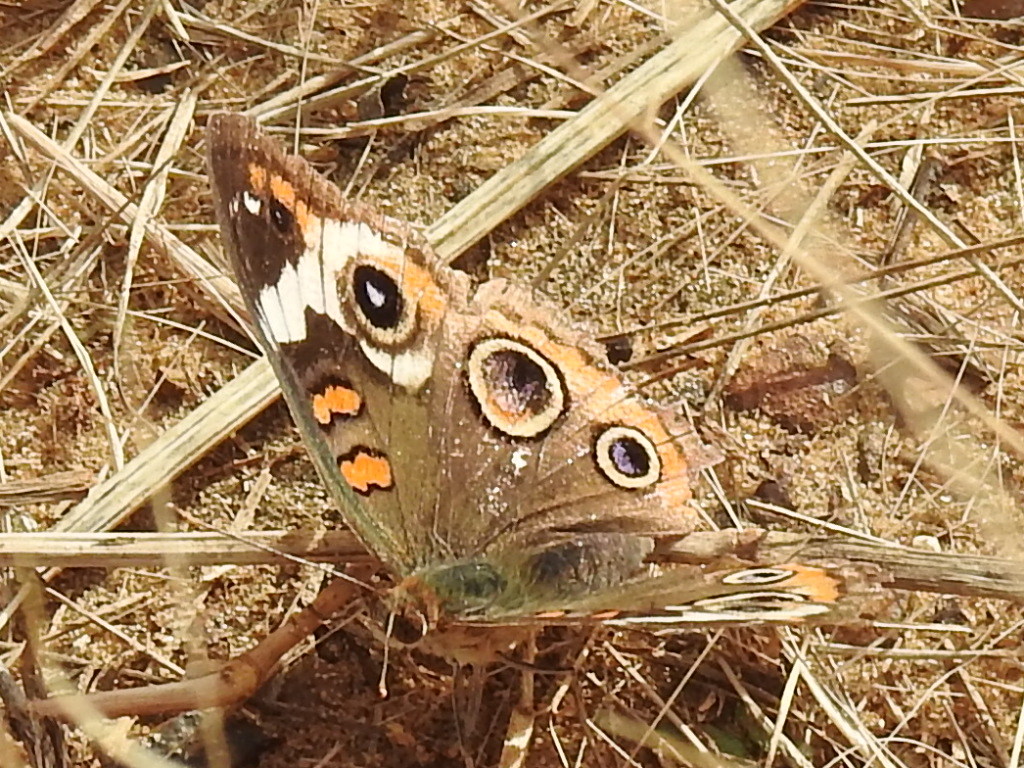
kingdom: Animalia
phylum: Arthropoda
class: Insecta
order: Lepidoptera
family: Nymphalidae
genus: Junonia
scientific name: Junonia coenia
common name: Common buckeye
